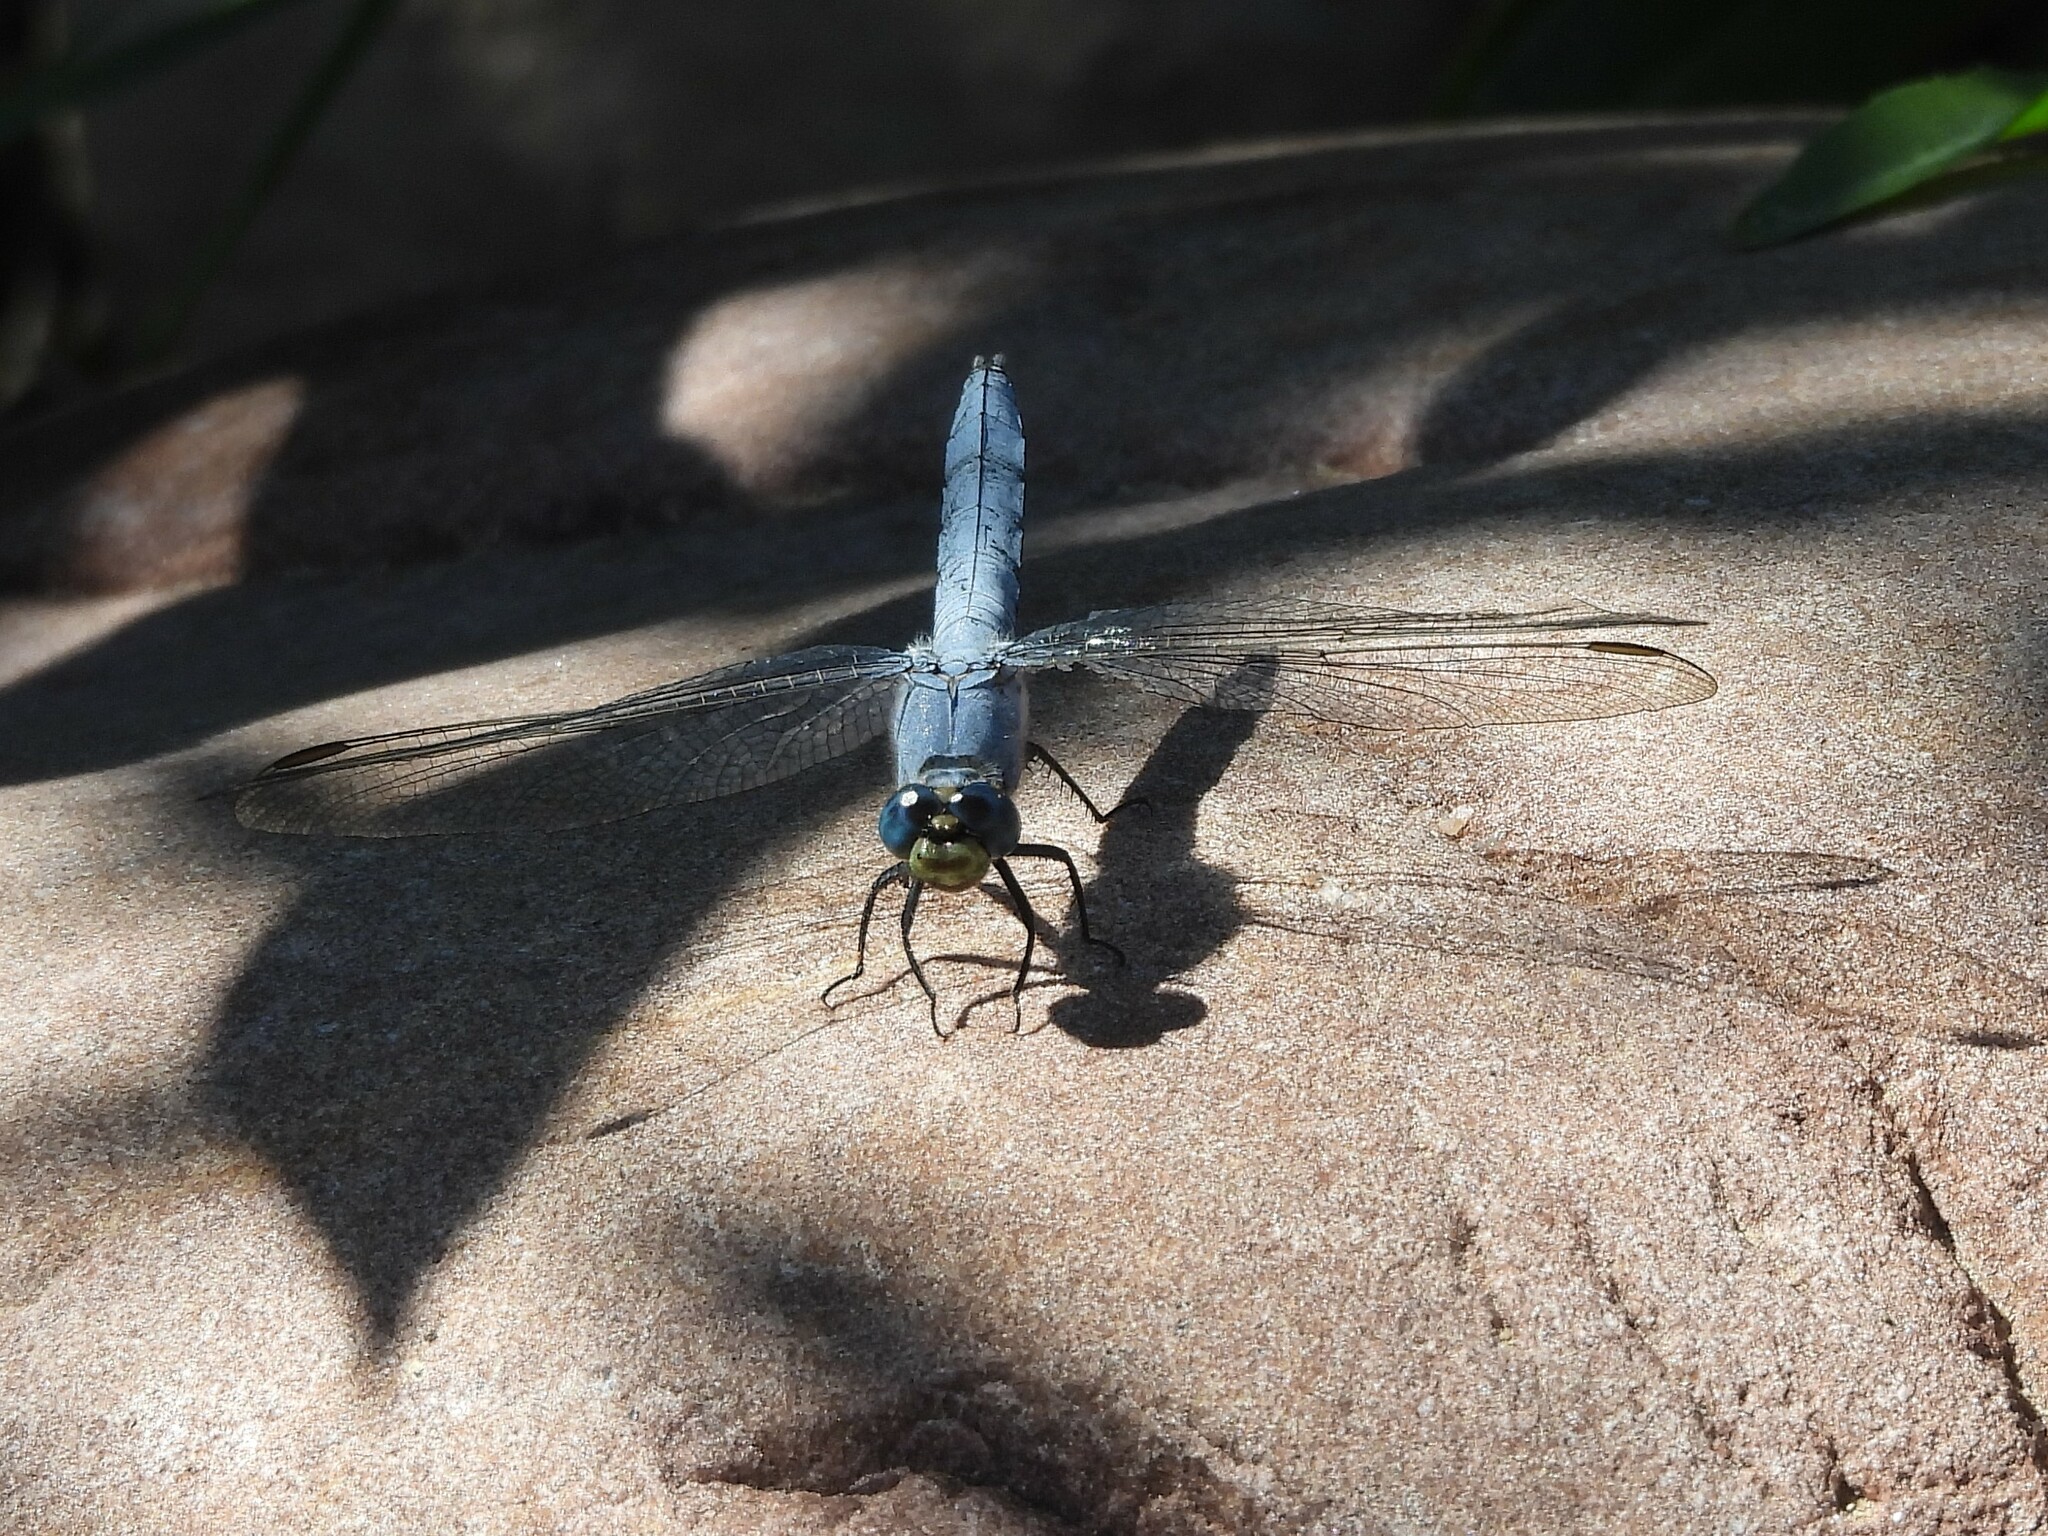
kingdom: Animalia
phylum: Arthropoda
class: Insecta
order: Odonata
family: Libellulidae
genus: Erythemis
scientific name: Erythemis collocata
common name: Western pondhawk
